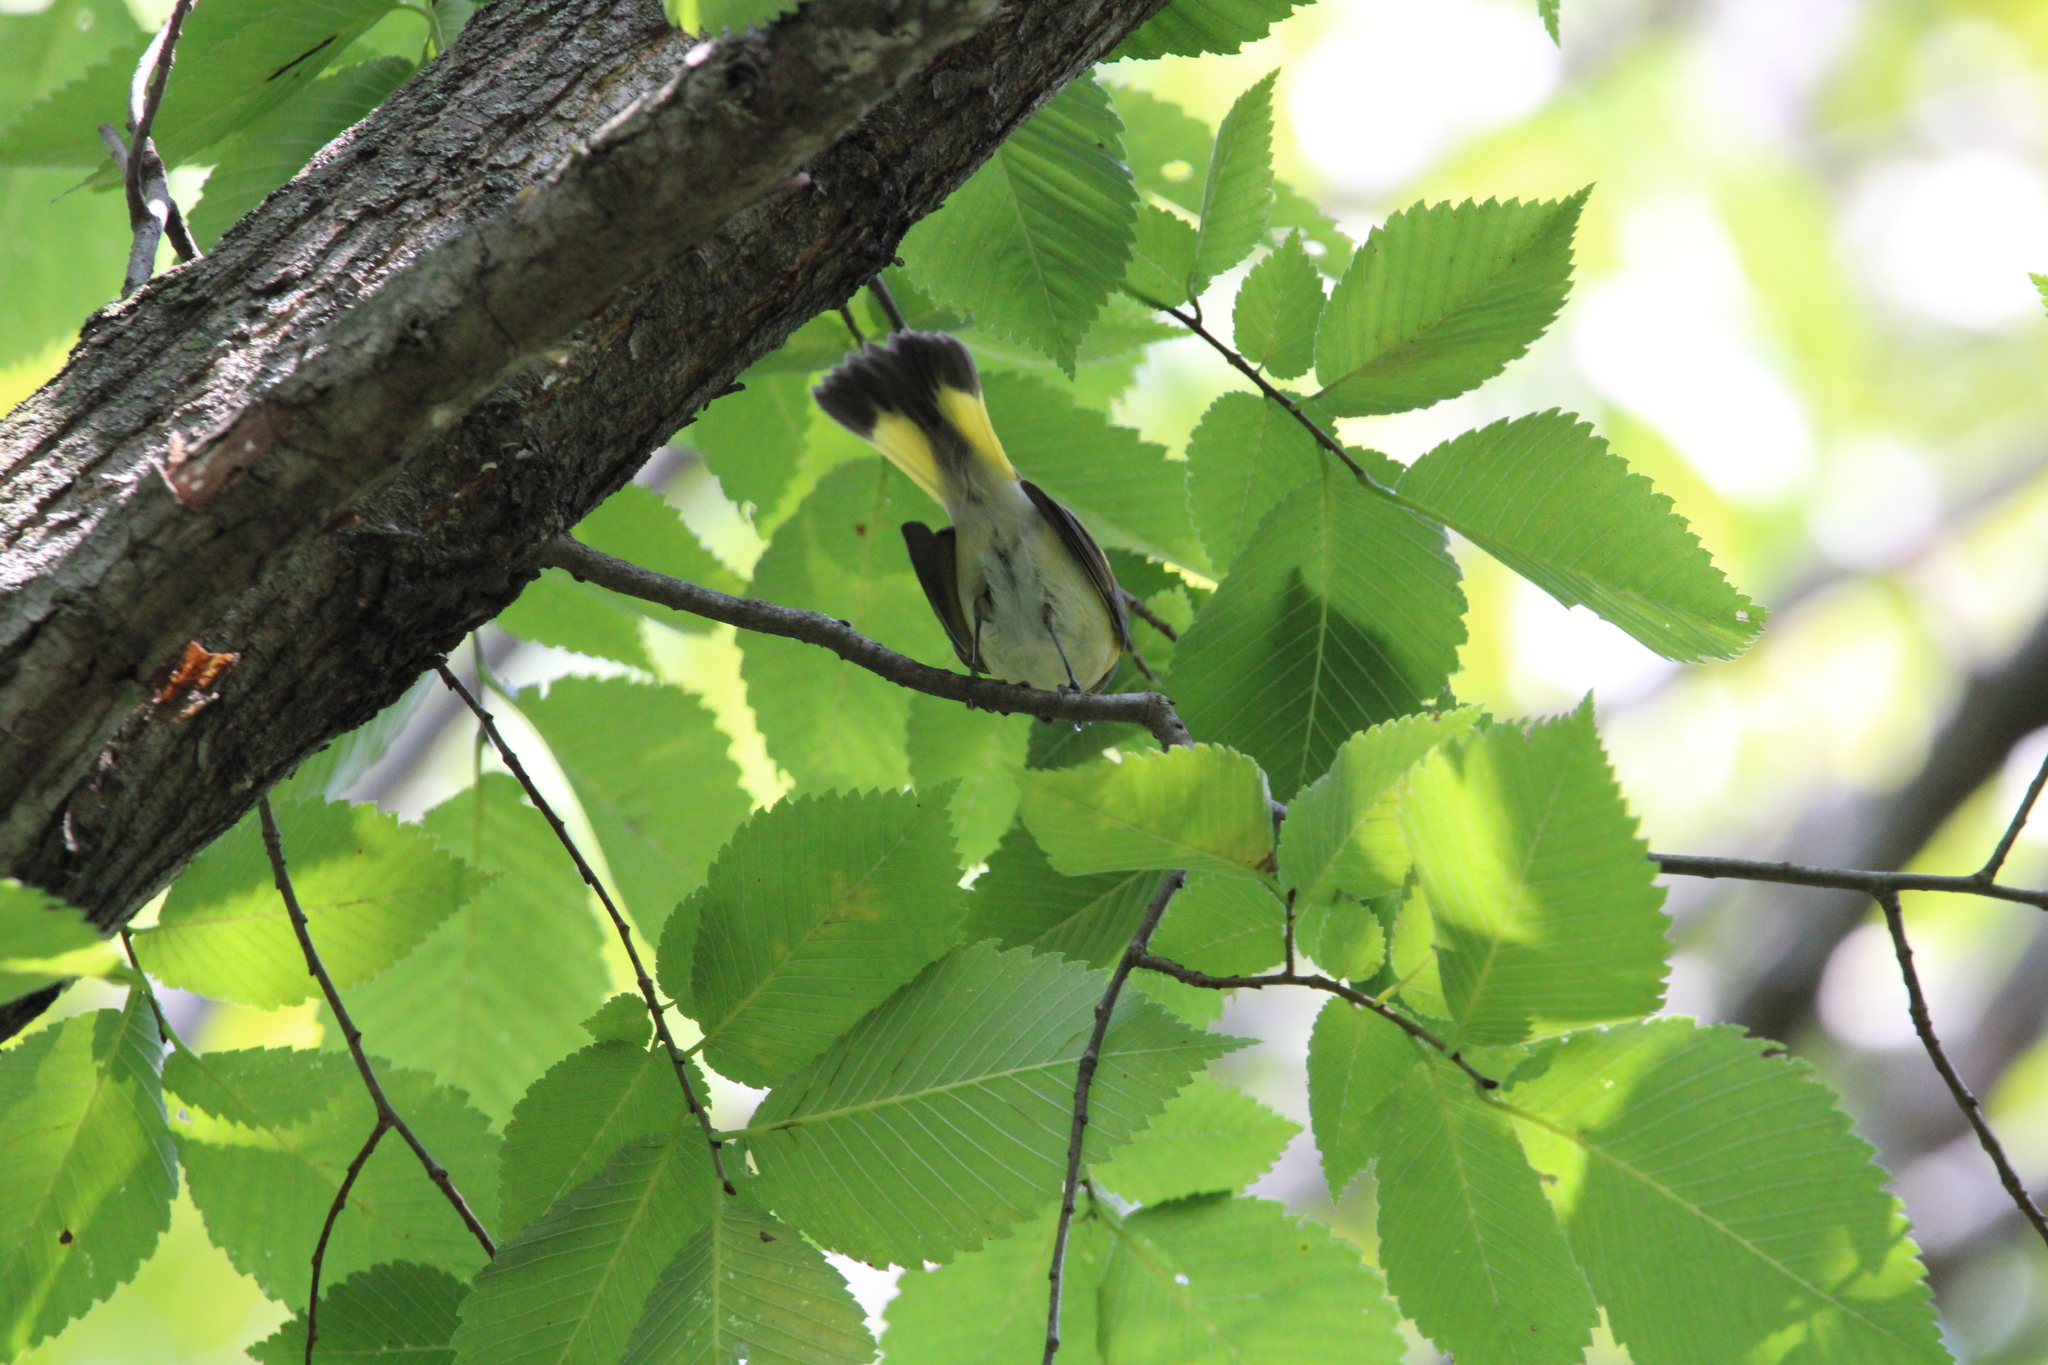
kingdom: Animalia
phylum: Chordata
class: Aves
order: Passeriformes
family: Parulidae
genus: Setophaga
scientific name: Setophaga ruticilla
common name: American redstart
